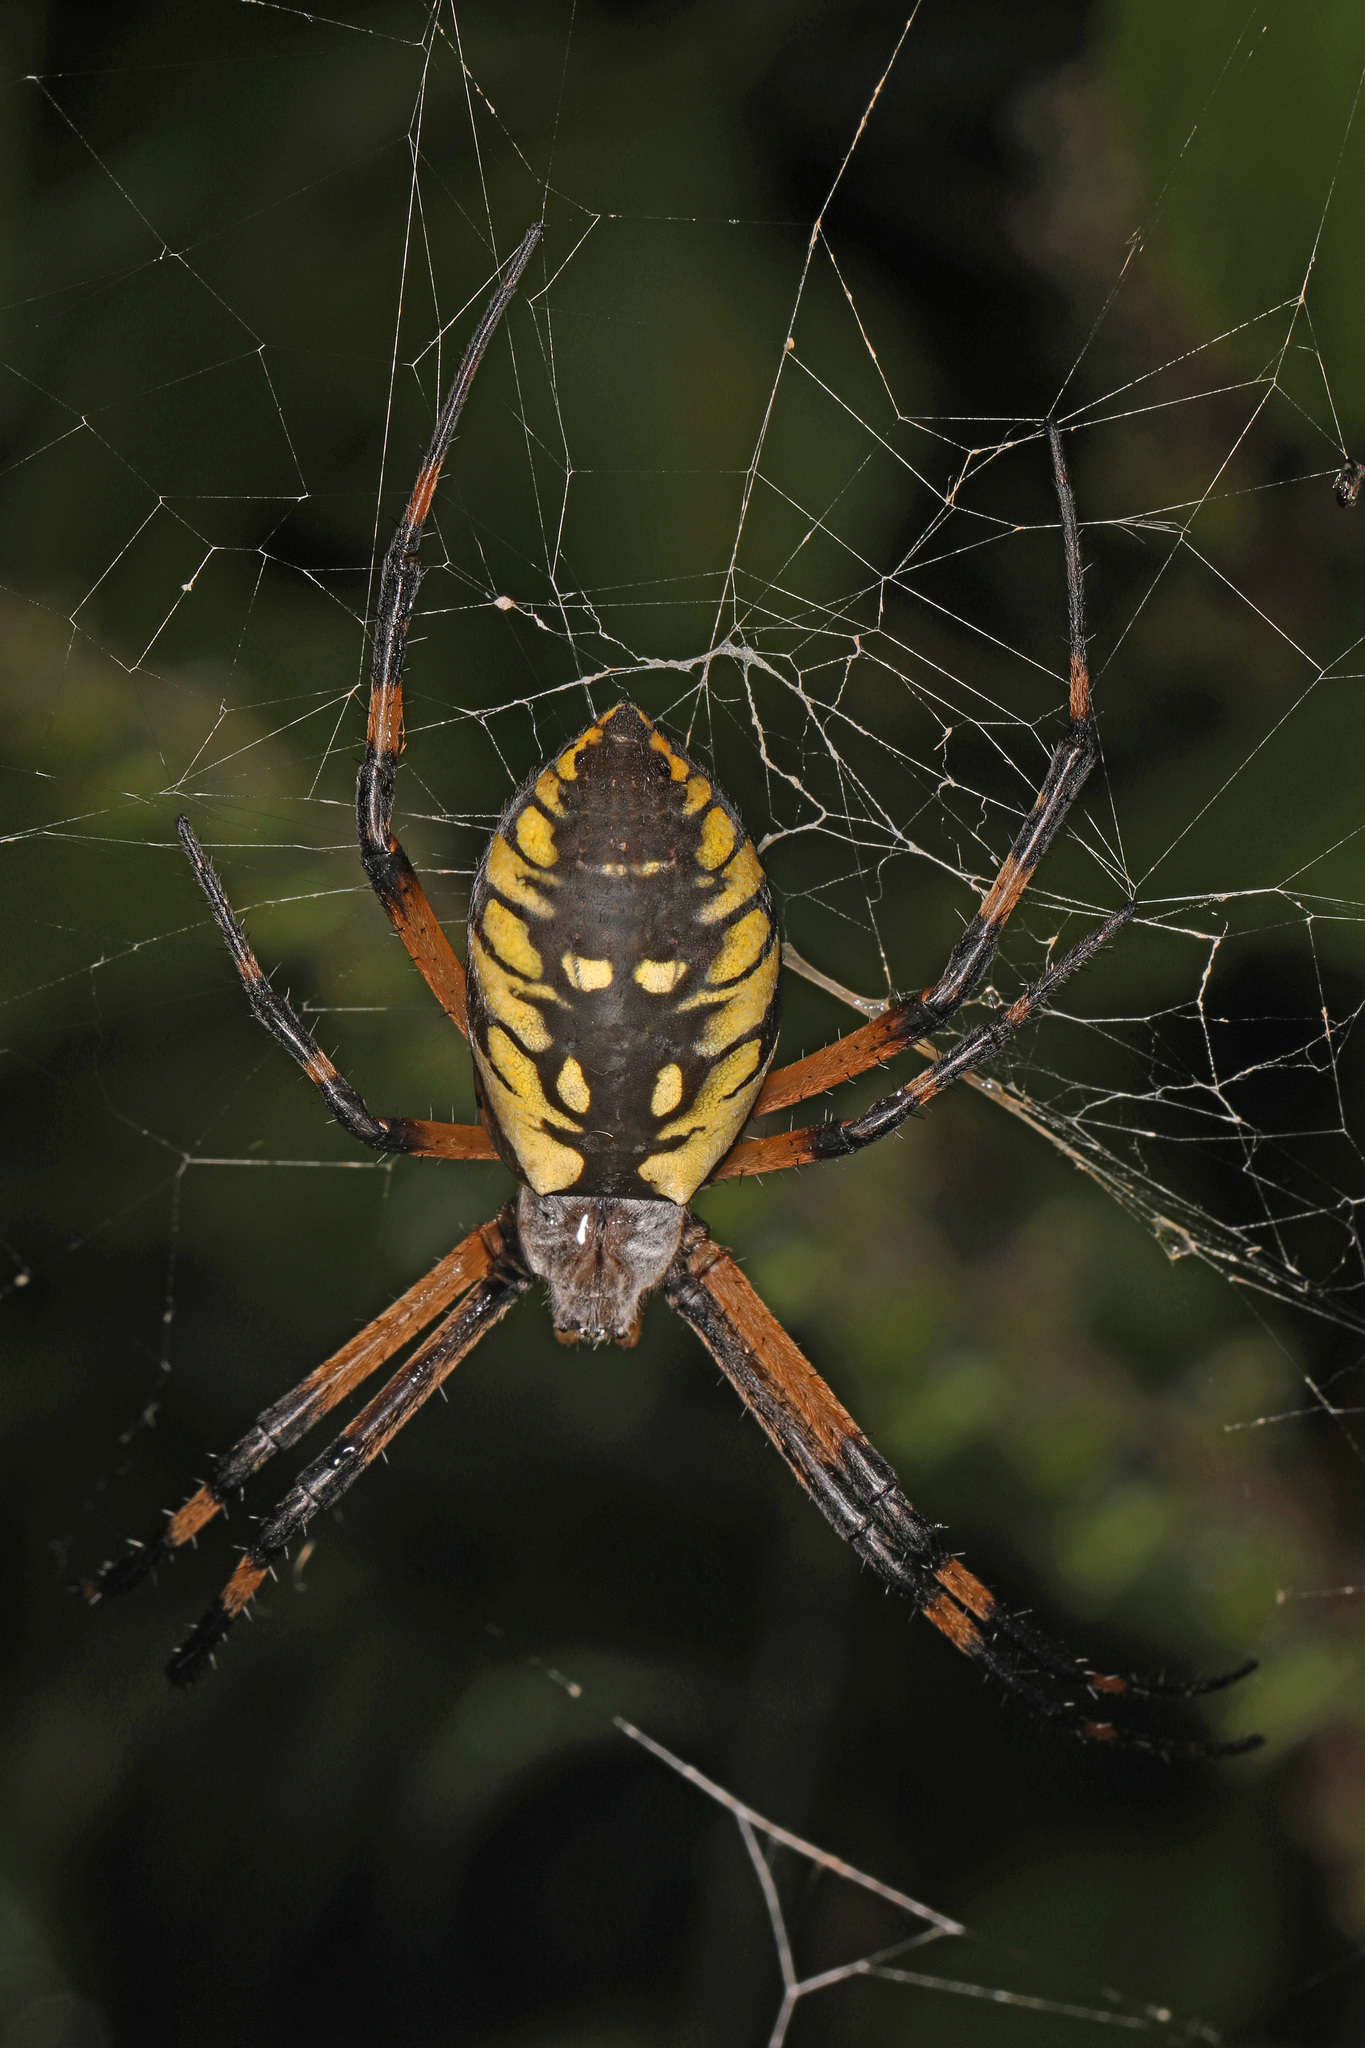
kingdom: Animalia
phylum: Arthropoda
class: Arachnida
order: Araneae
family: Araneidae
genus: Argiope
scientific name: Argiope aurantia
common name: Orb weavers
